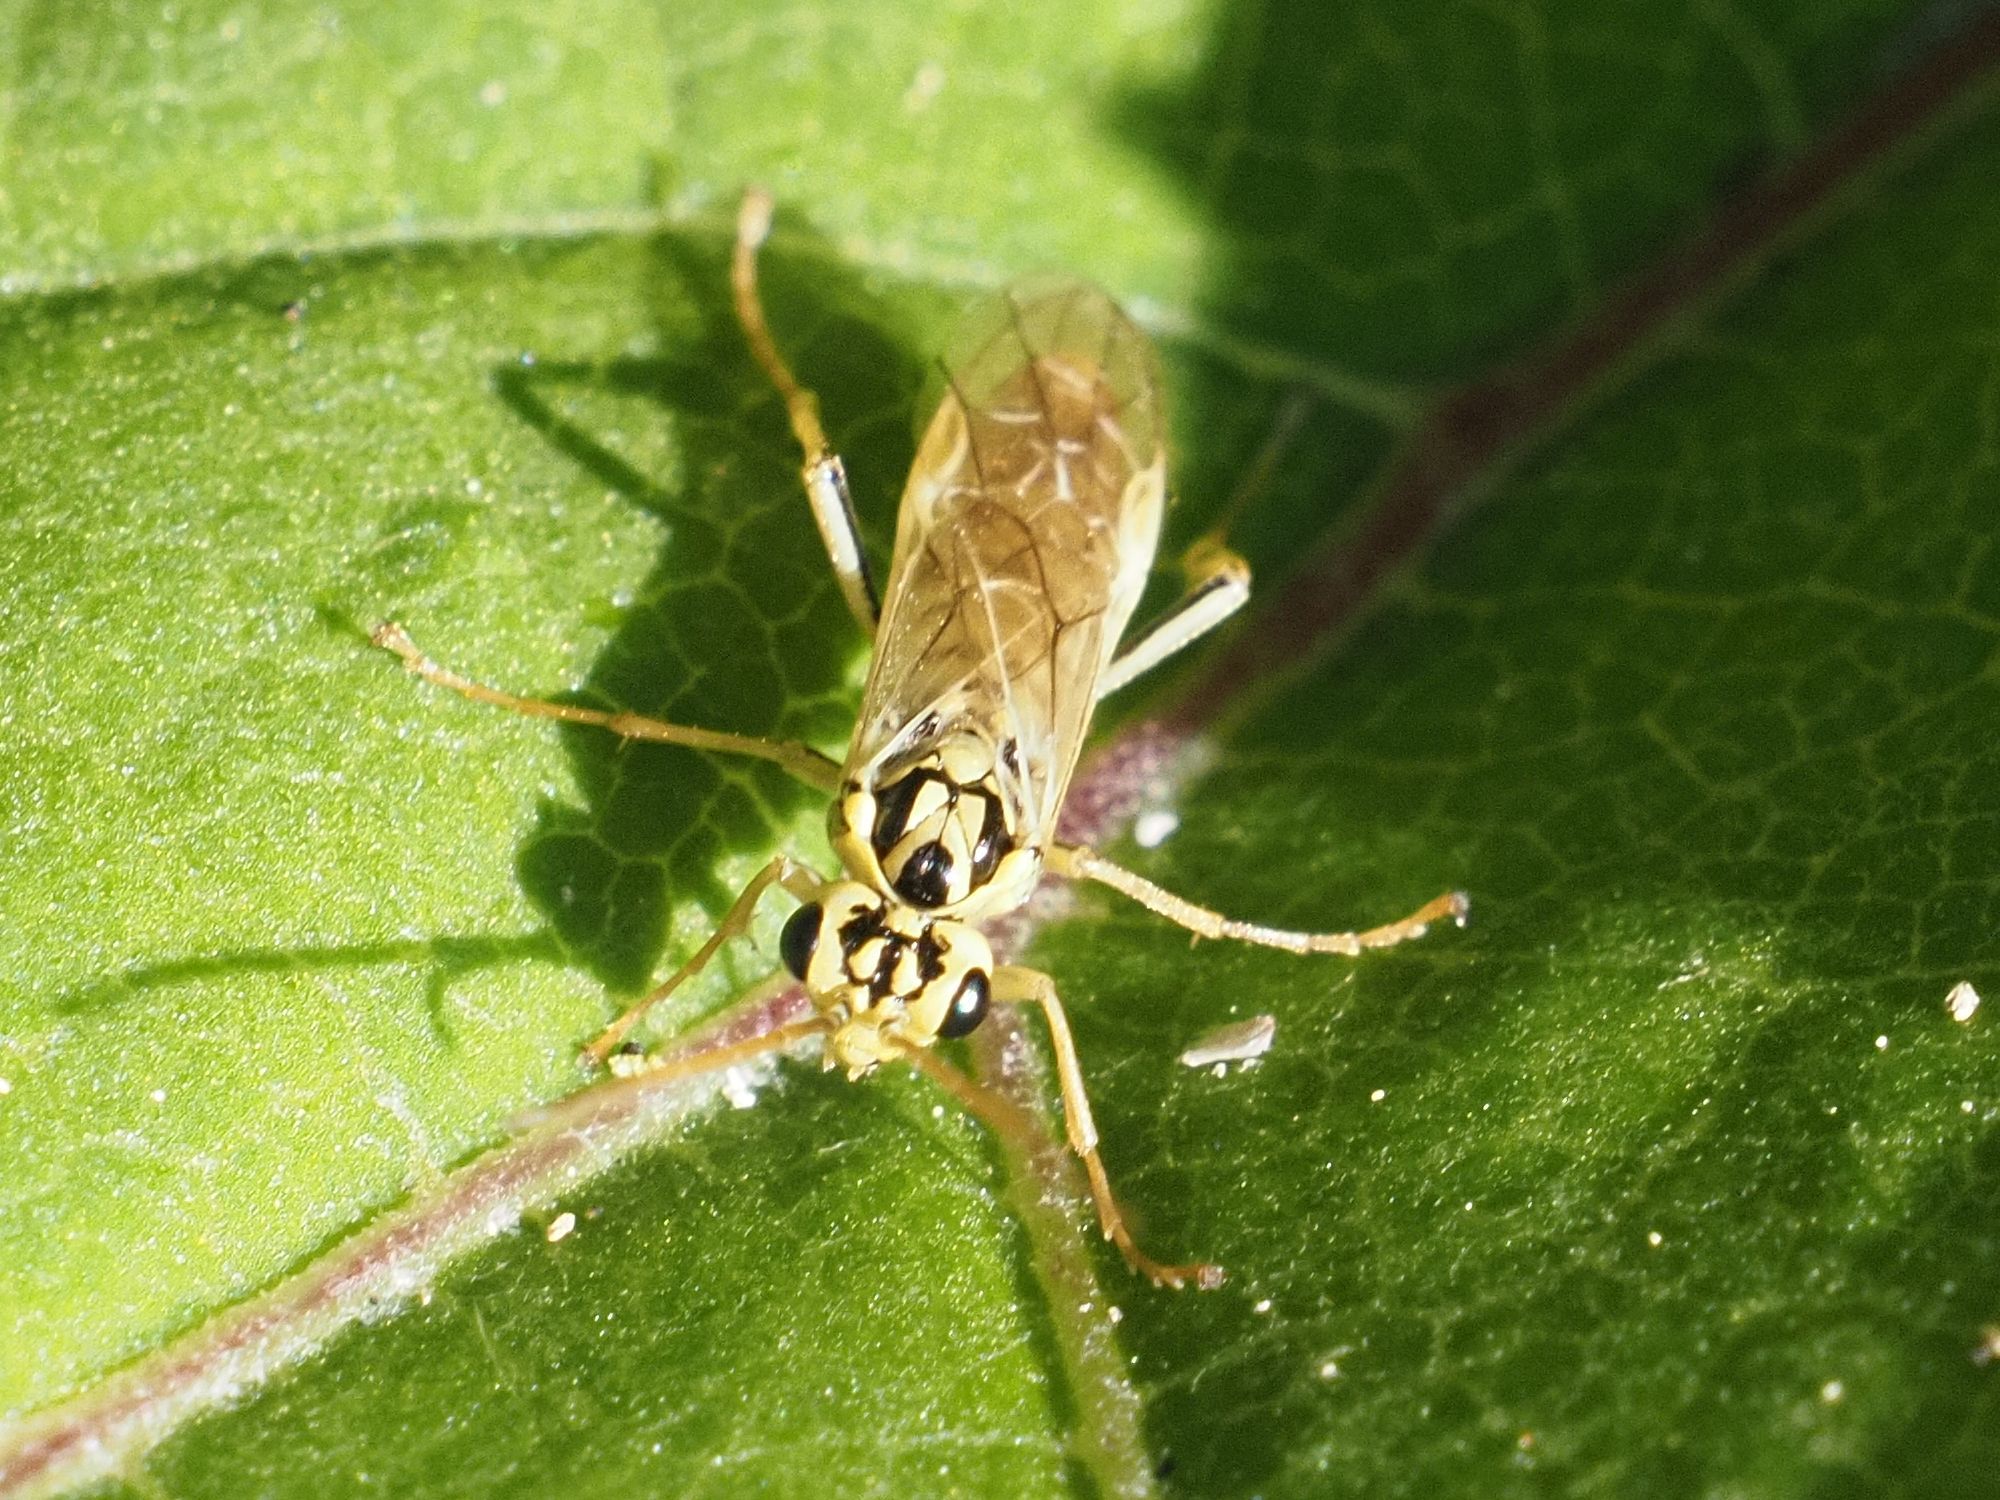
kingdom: Animalia
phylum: Arthropoda
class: Insecta
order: Hymenoptera
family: Tenthredinidae
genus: Aglaostigma
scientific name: Aglaostigma lichtwardti
